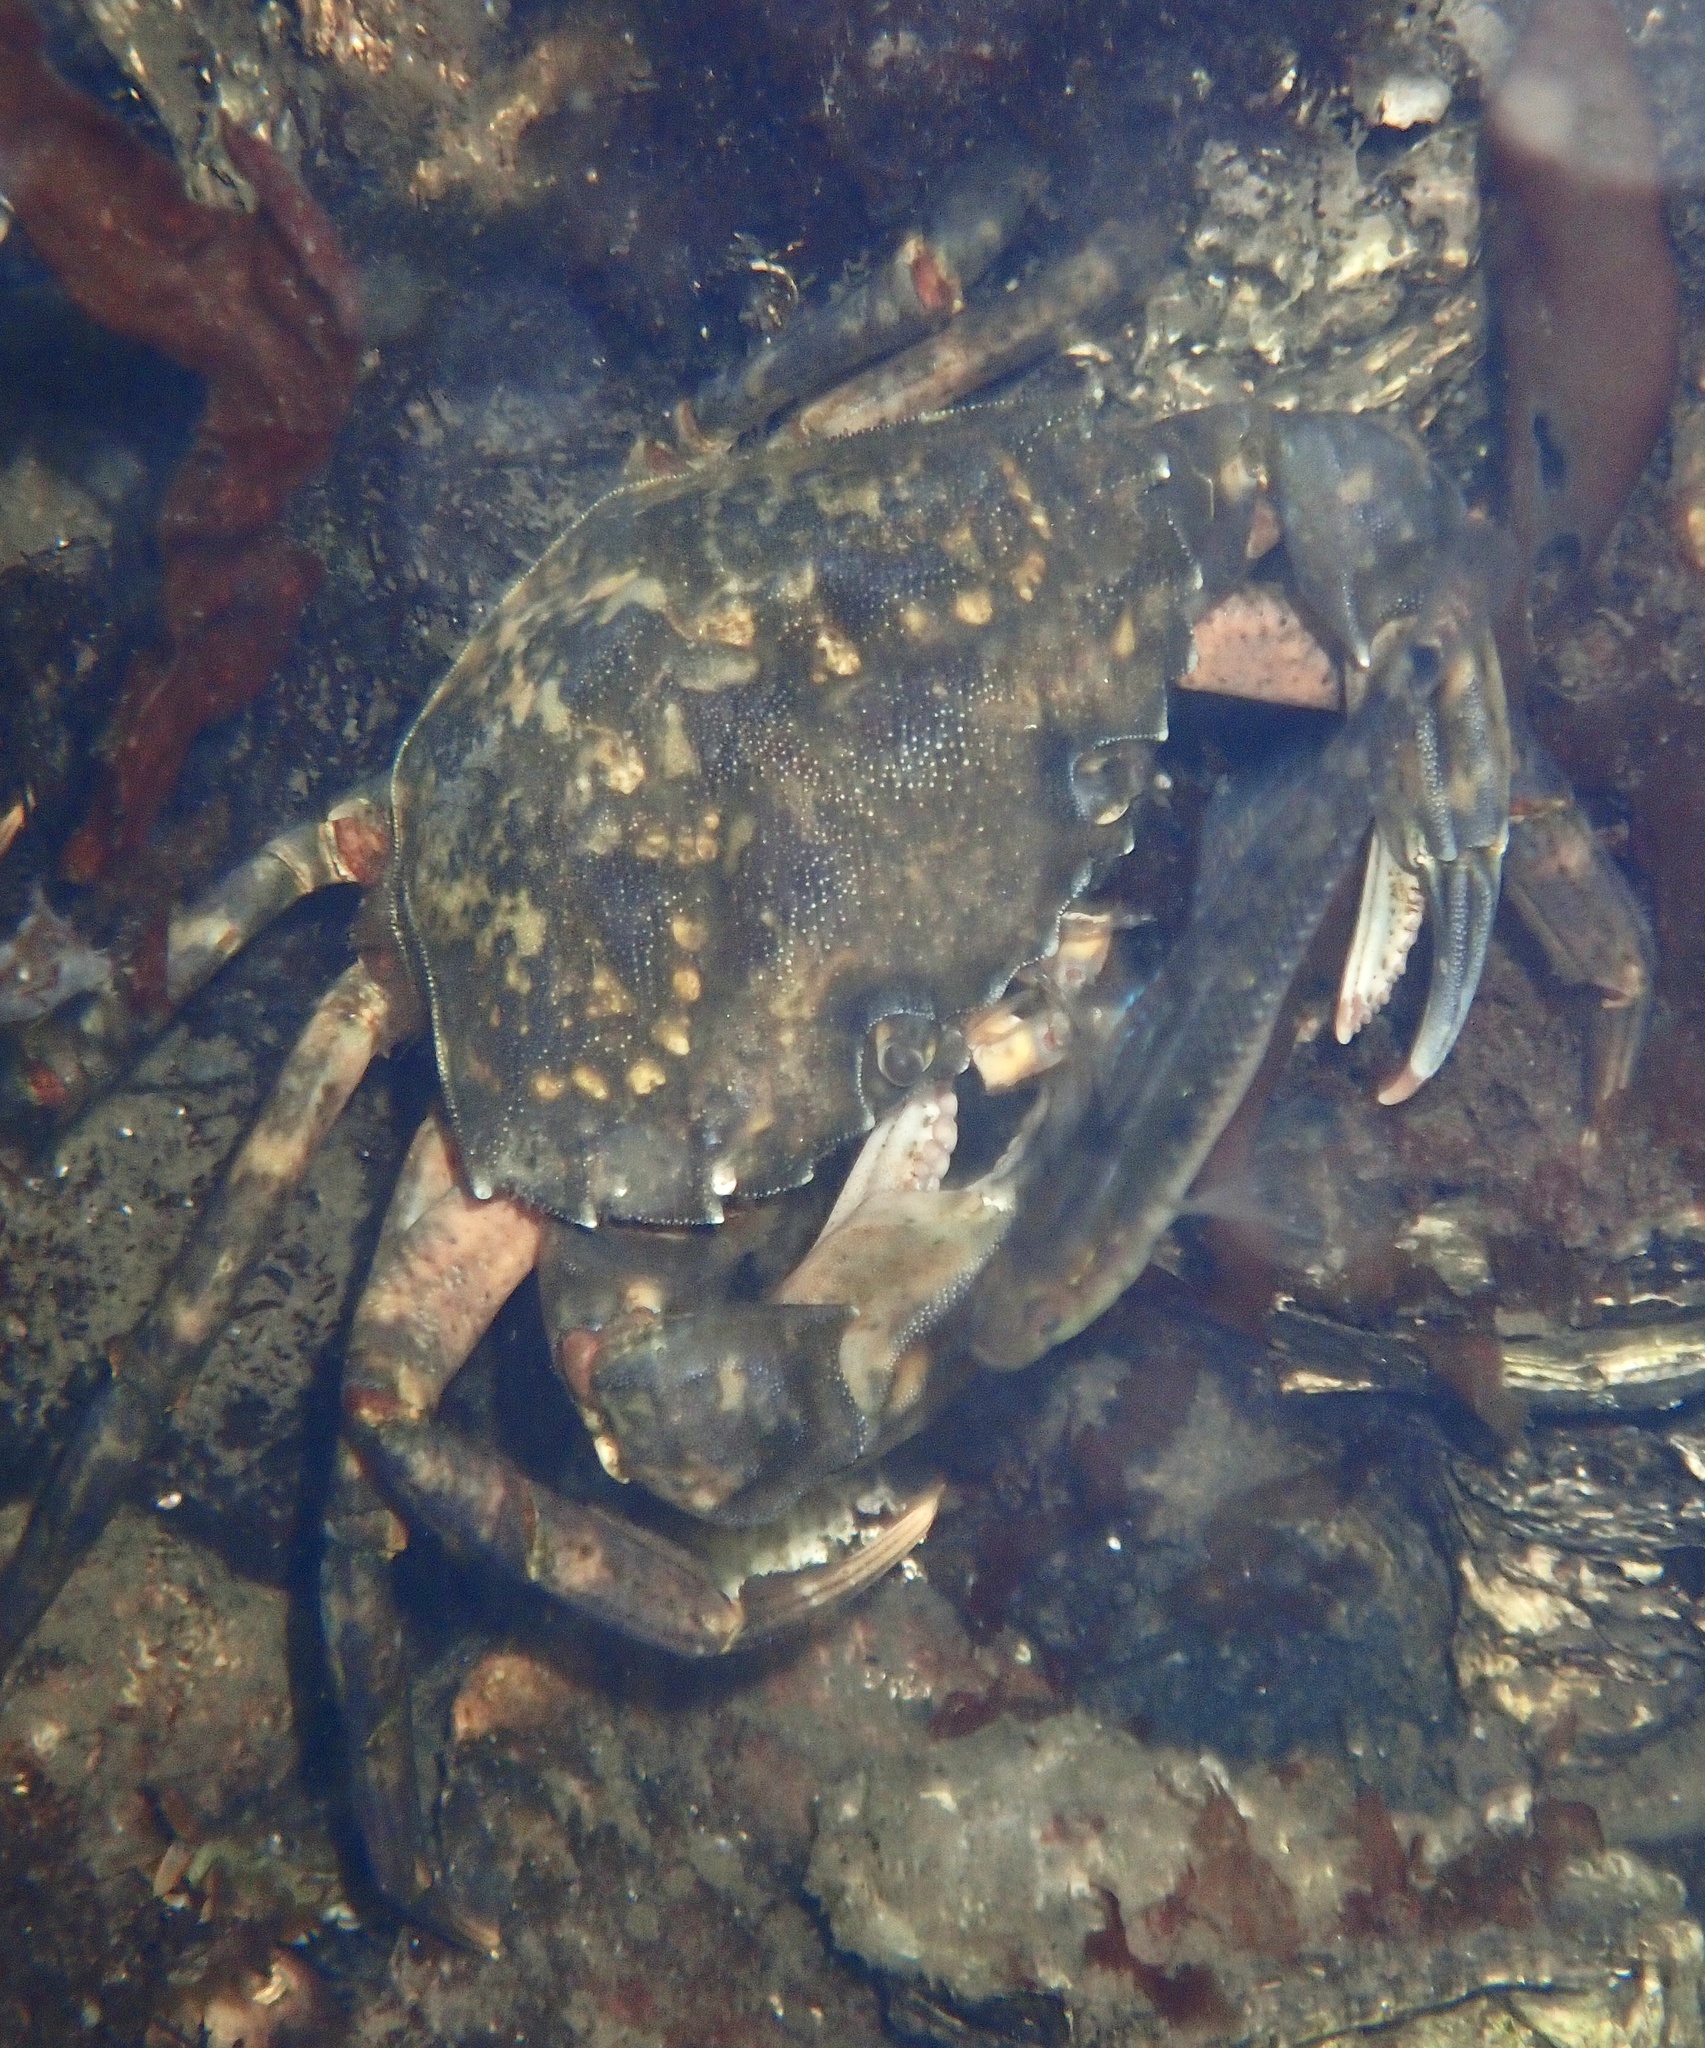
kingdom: Animalia
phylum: Arthropoda
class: Malacostraca
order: Decapoda
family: Carcinidae
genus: Carcinus
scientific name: Carcinus maenas
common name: European green crab
